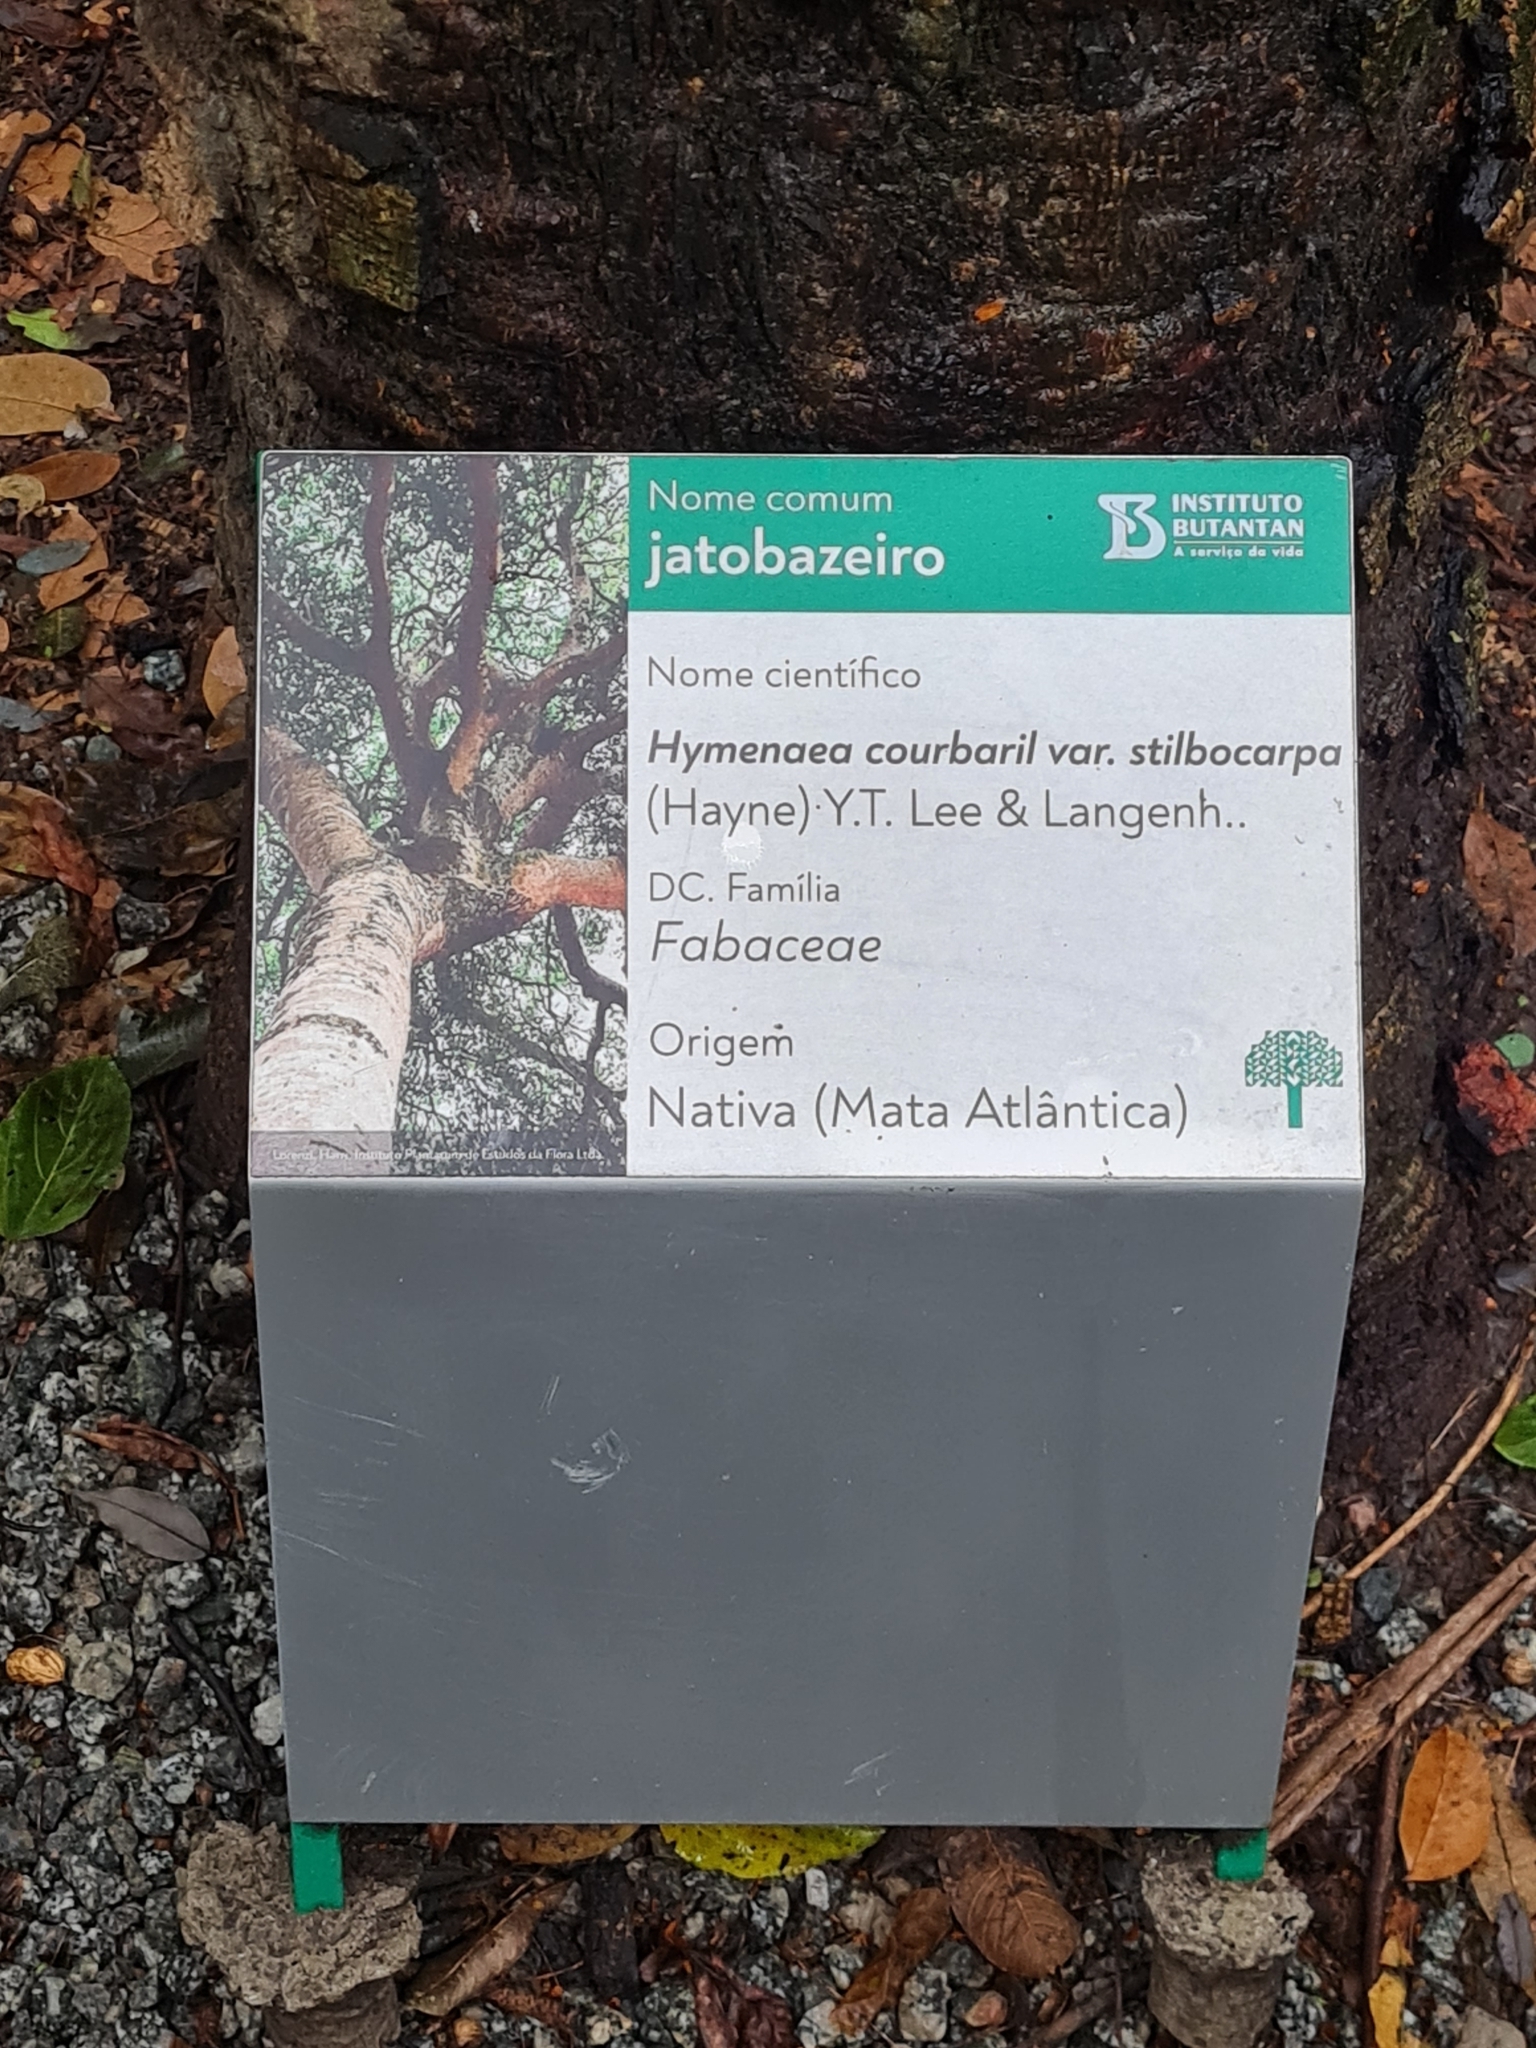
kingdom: Plantae
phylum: Tracheophyta
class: Magnoliopsida
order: Fabales
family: Fabaceae
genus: Hymenaea
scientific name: Hymenaea courbaril
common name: Brazilian copal
